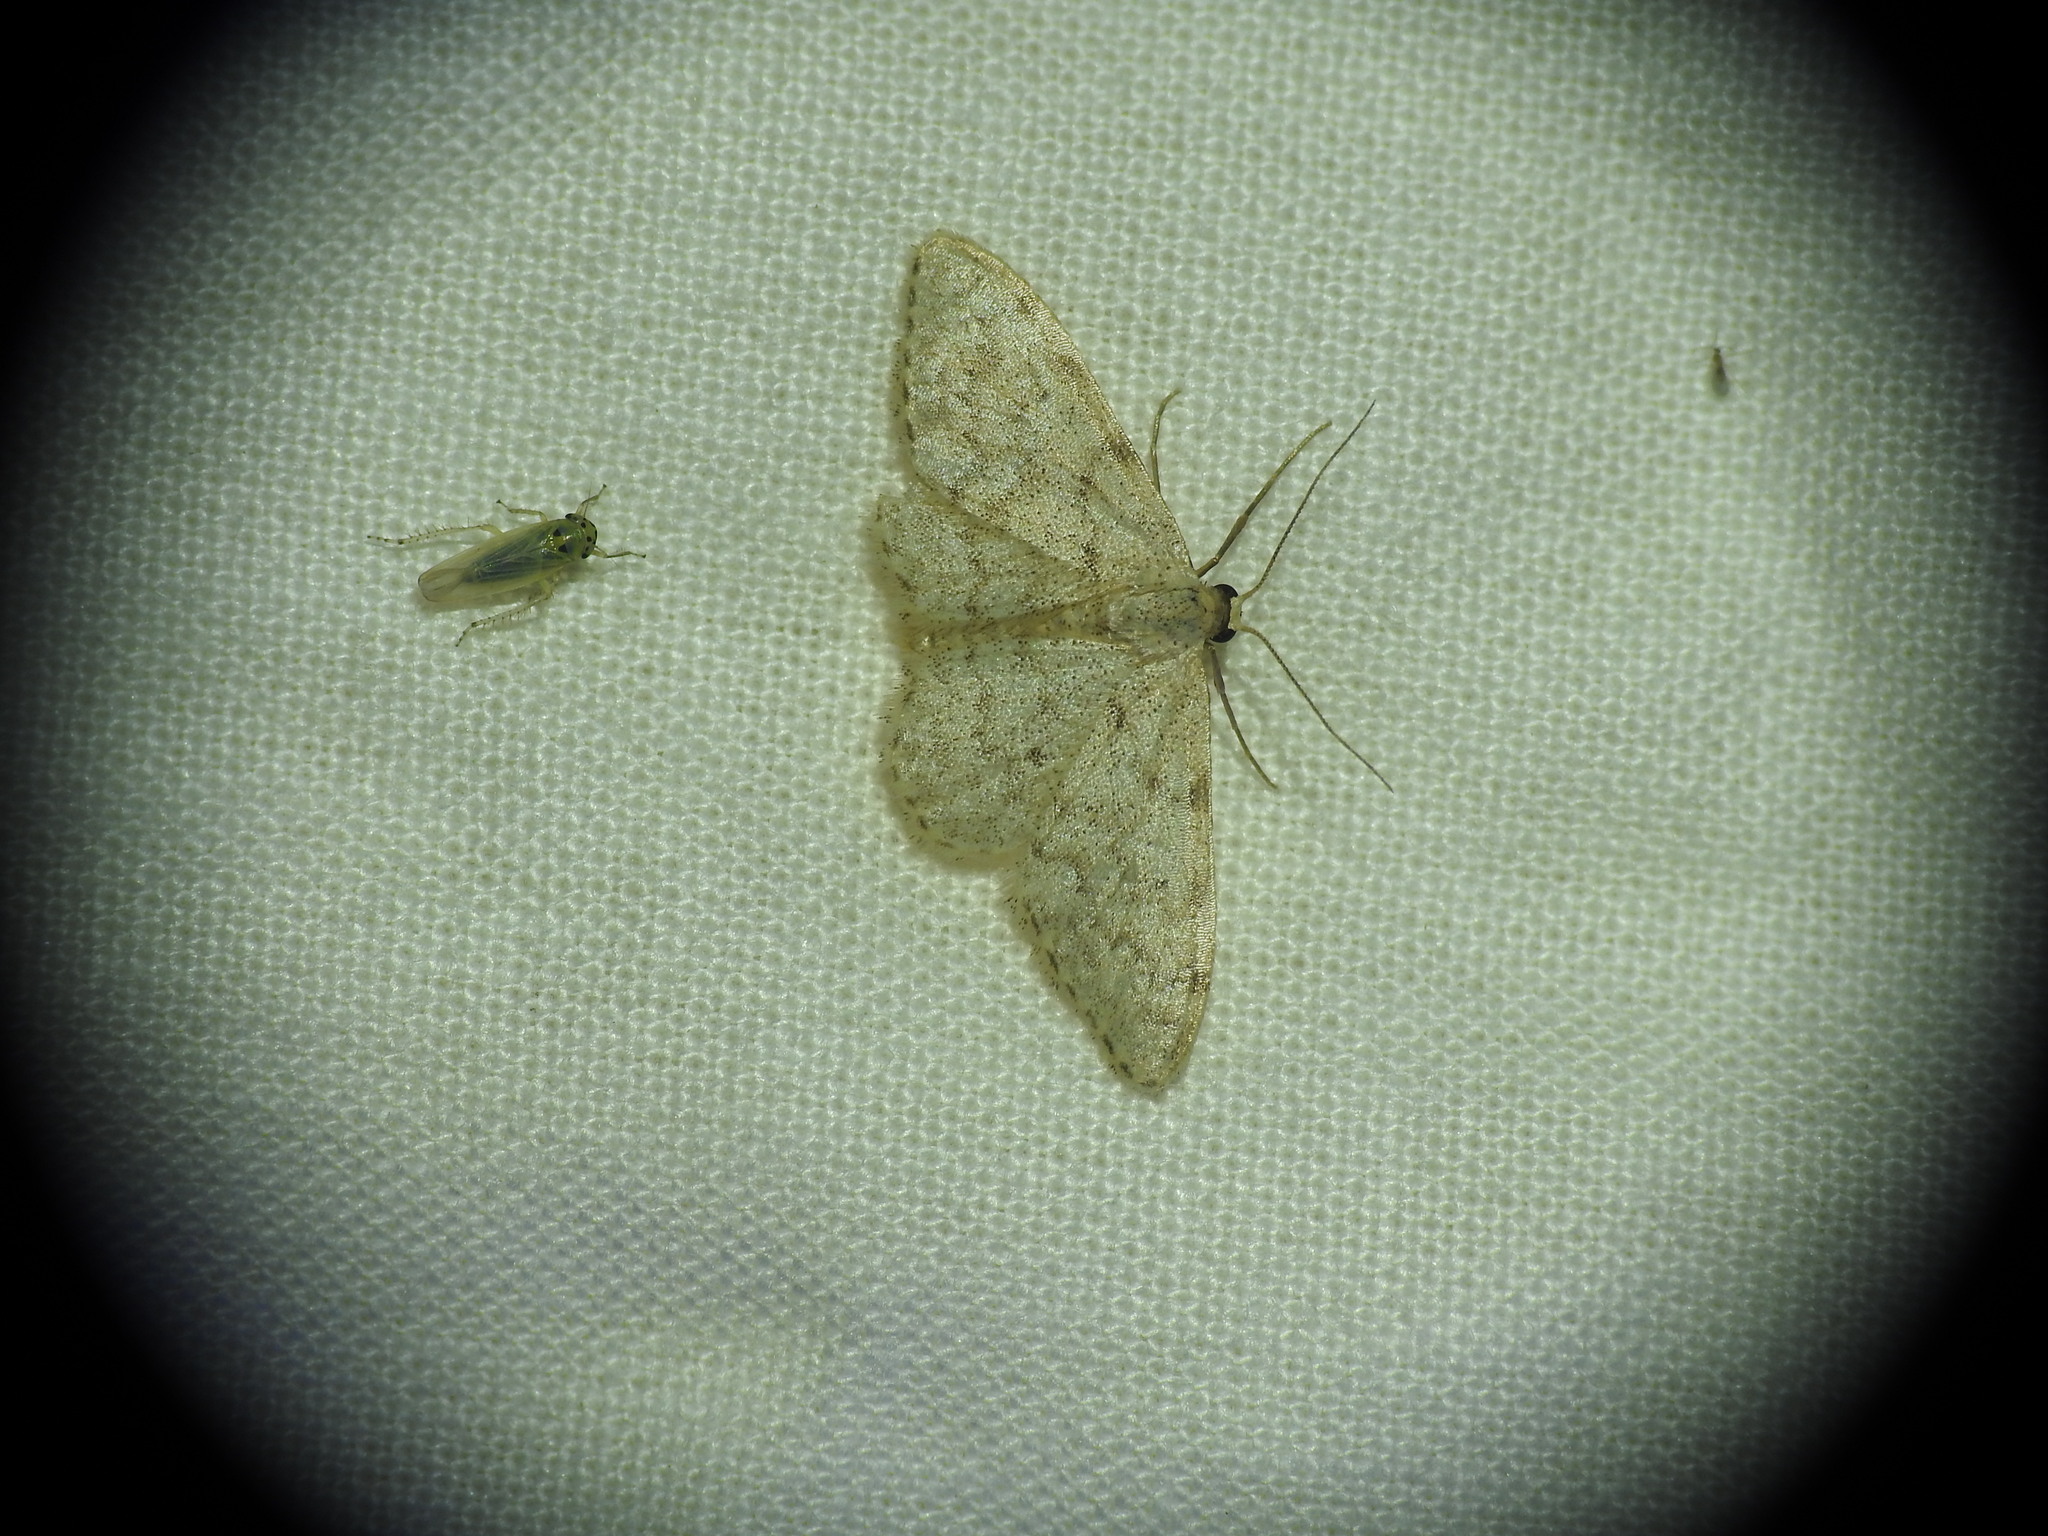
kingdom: Animalia
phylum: Arthropoda
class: Insecta
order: Lepidoptera
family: Geometridae
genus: Idaea
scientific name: Idaea alyssumata
